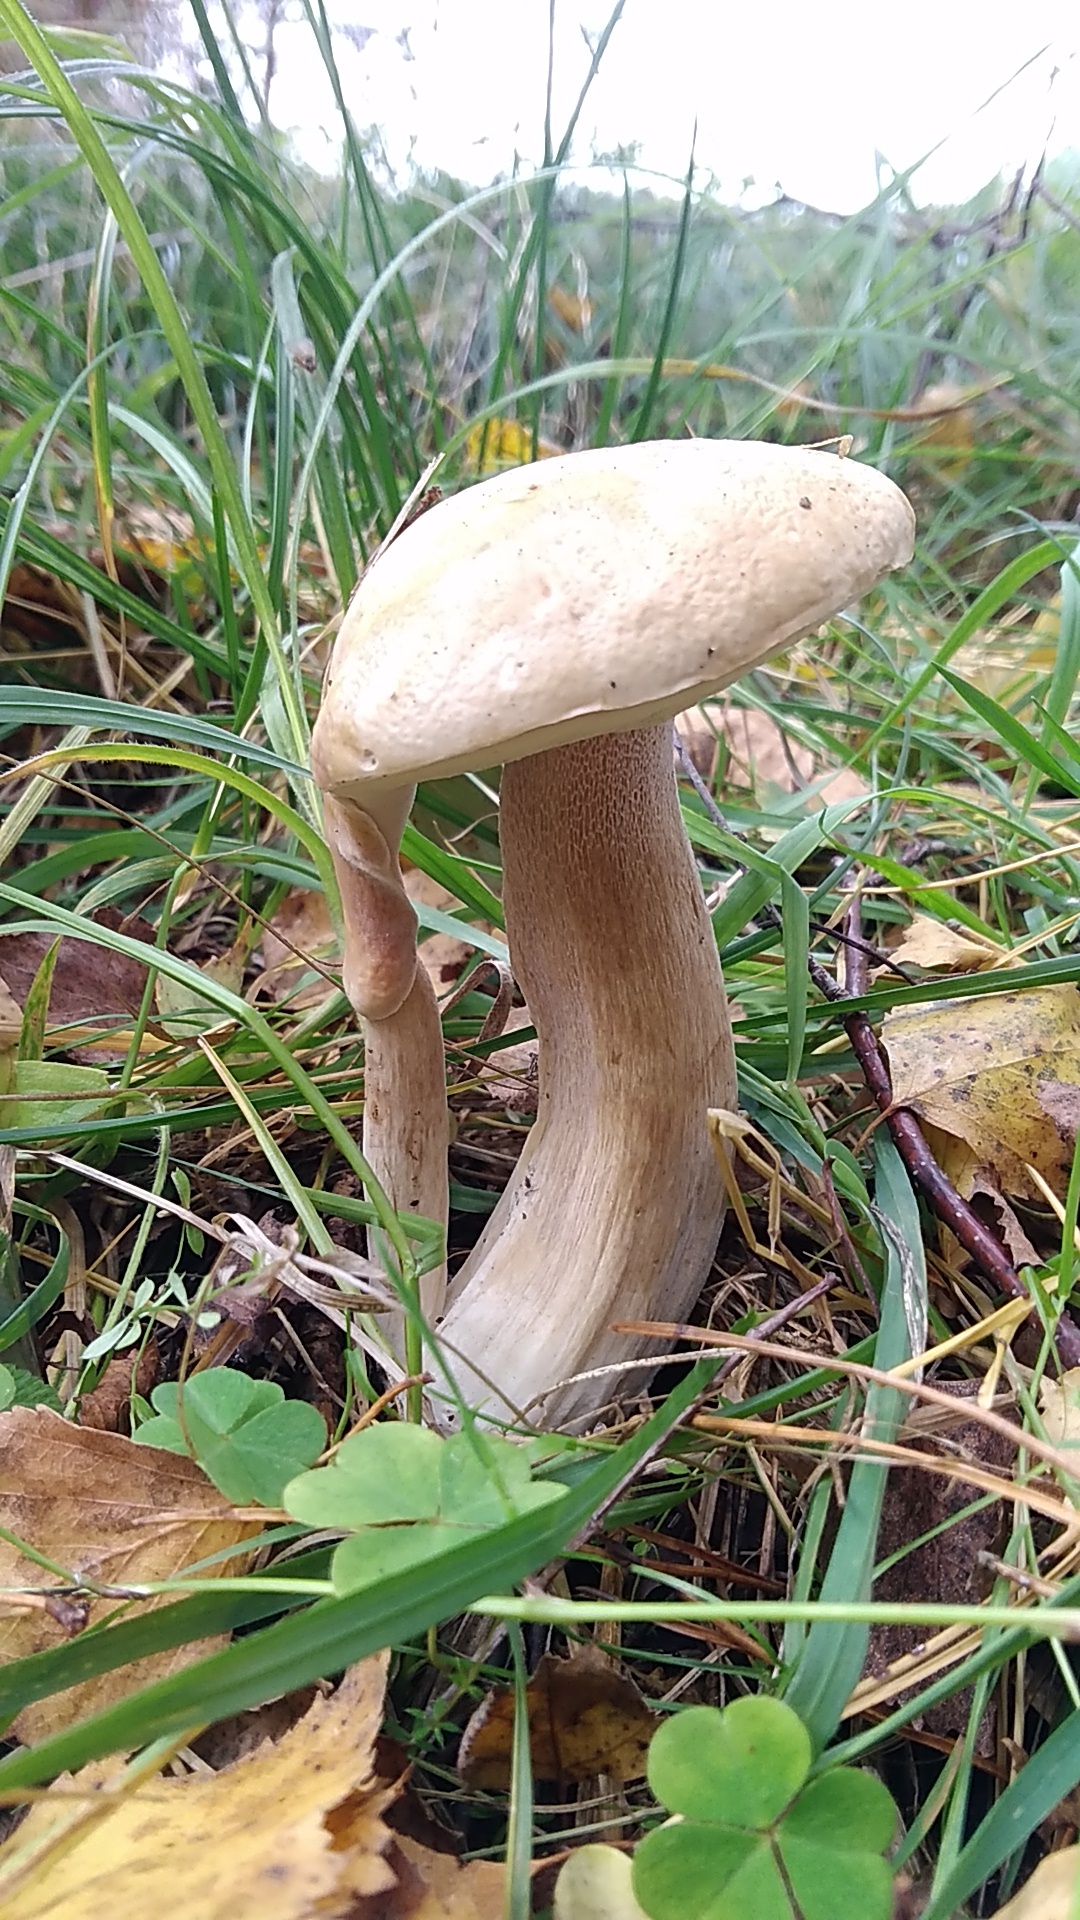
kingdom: Fungi
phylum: Basidiomycota
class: Agaricomycetes
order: Boletales
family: Boletaceae
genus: Boletus
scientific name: Boletus reticulatus
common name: Summer bolete
